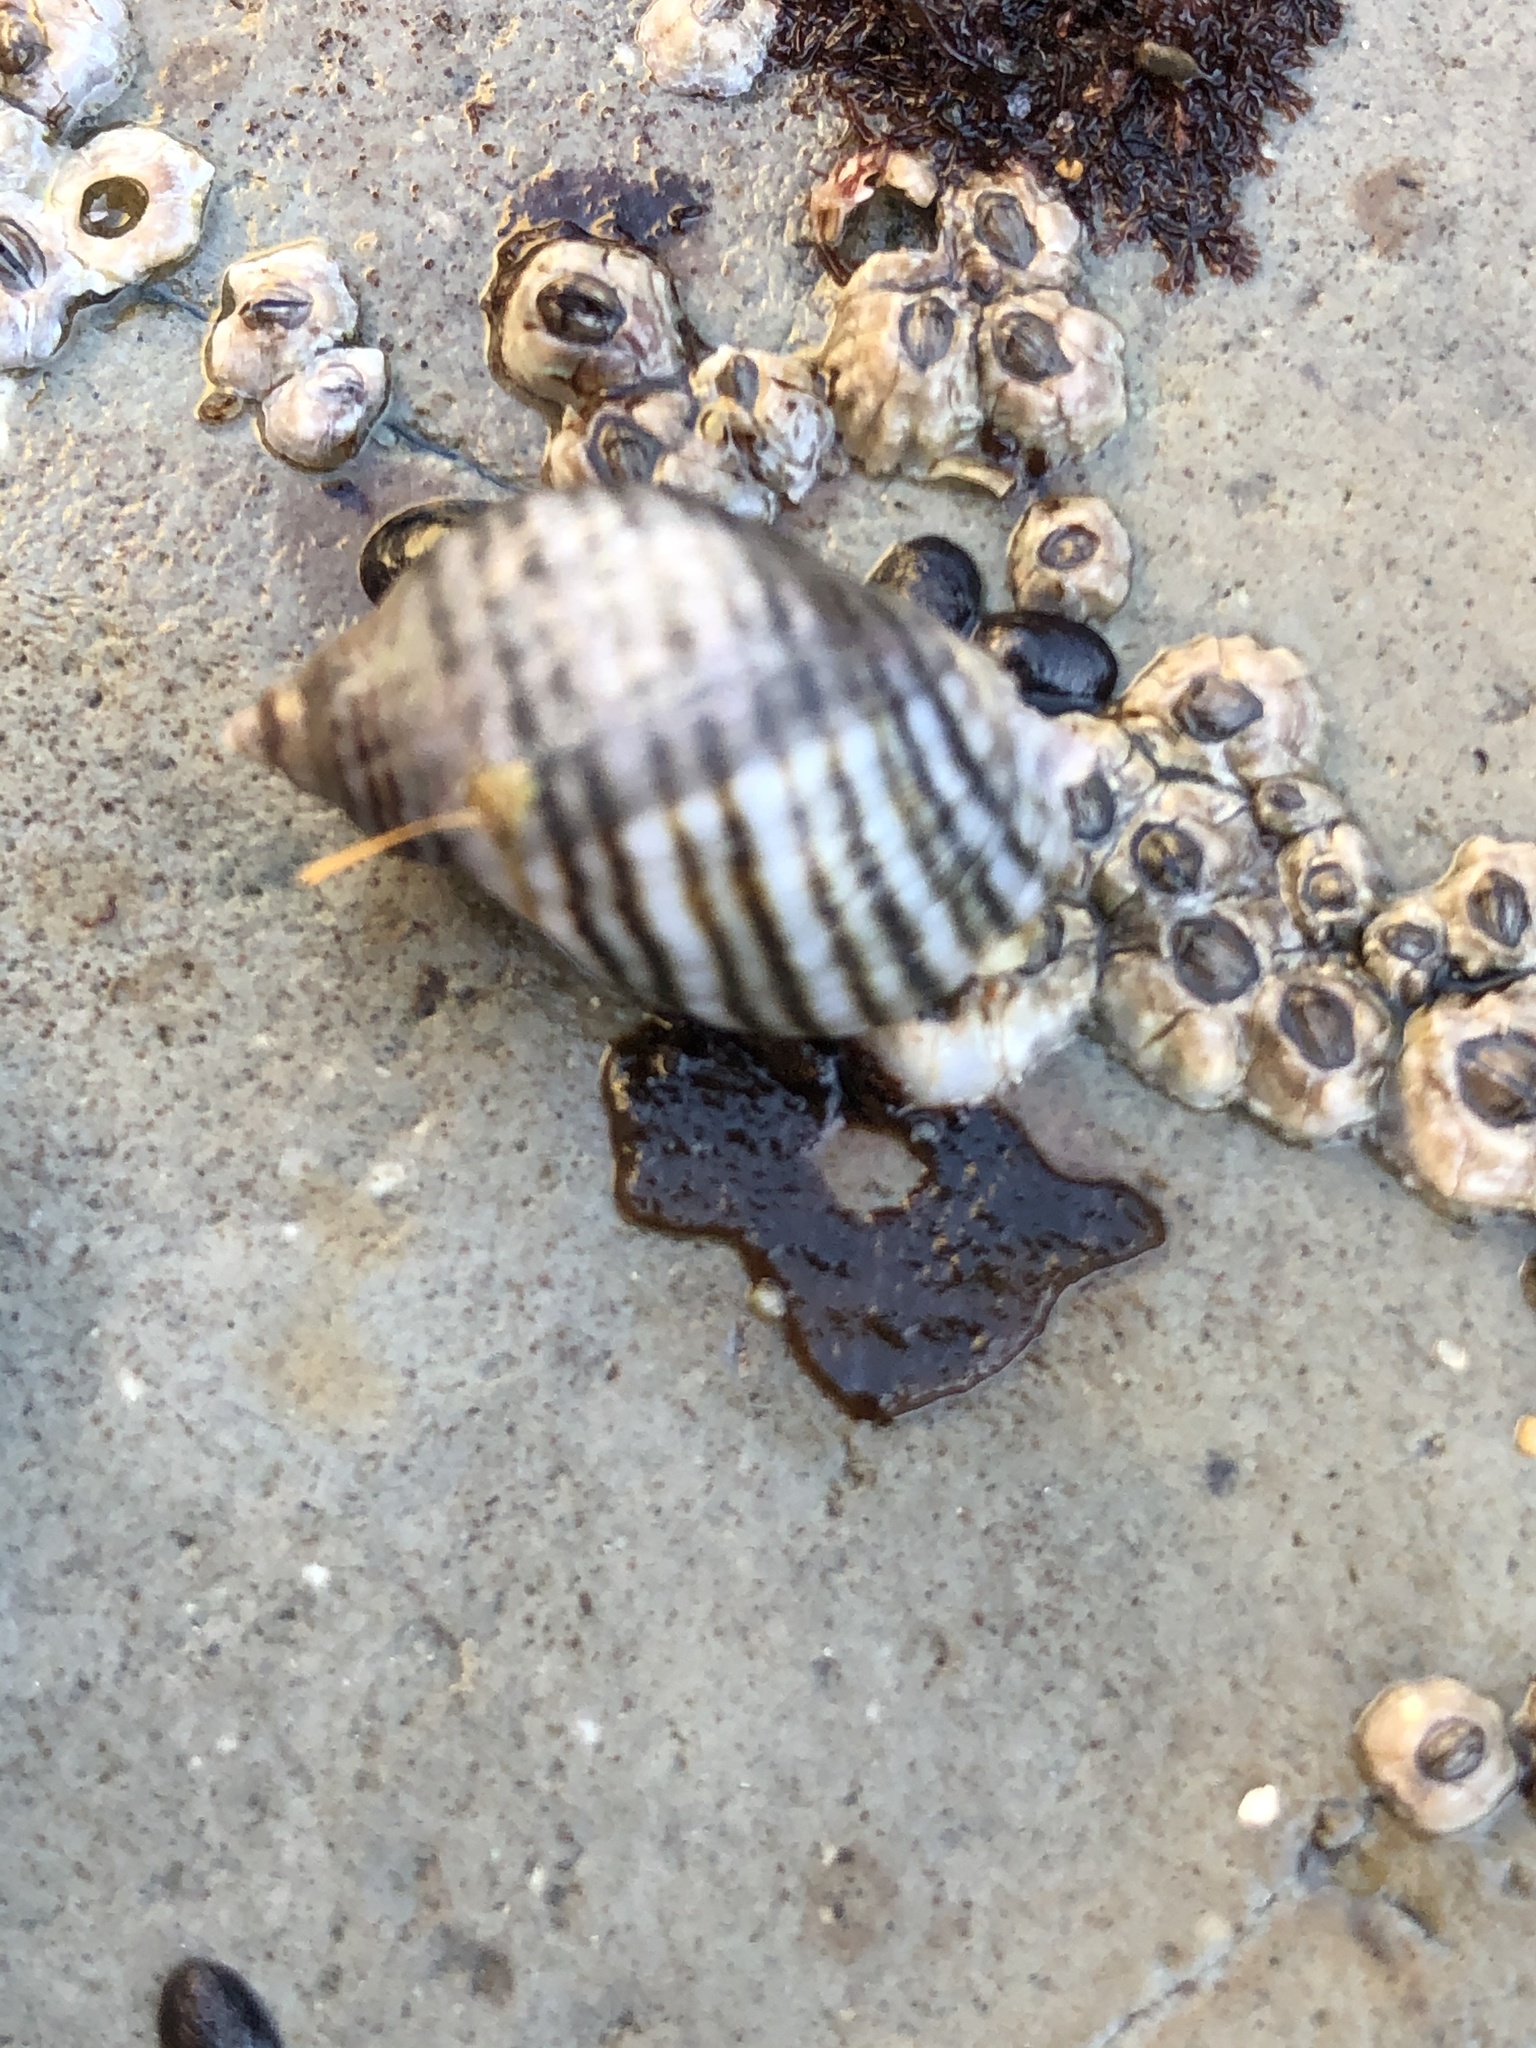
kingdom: Animalia
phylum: Mollusca
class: Gastropoda
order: Neogastropoda
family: Muricidae
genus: Nucella
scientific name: Nucella ostrina
